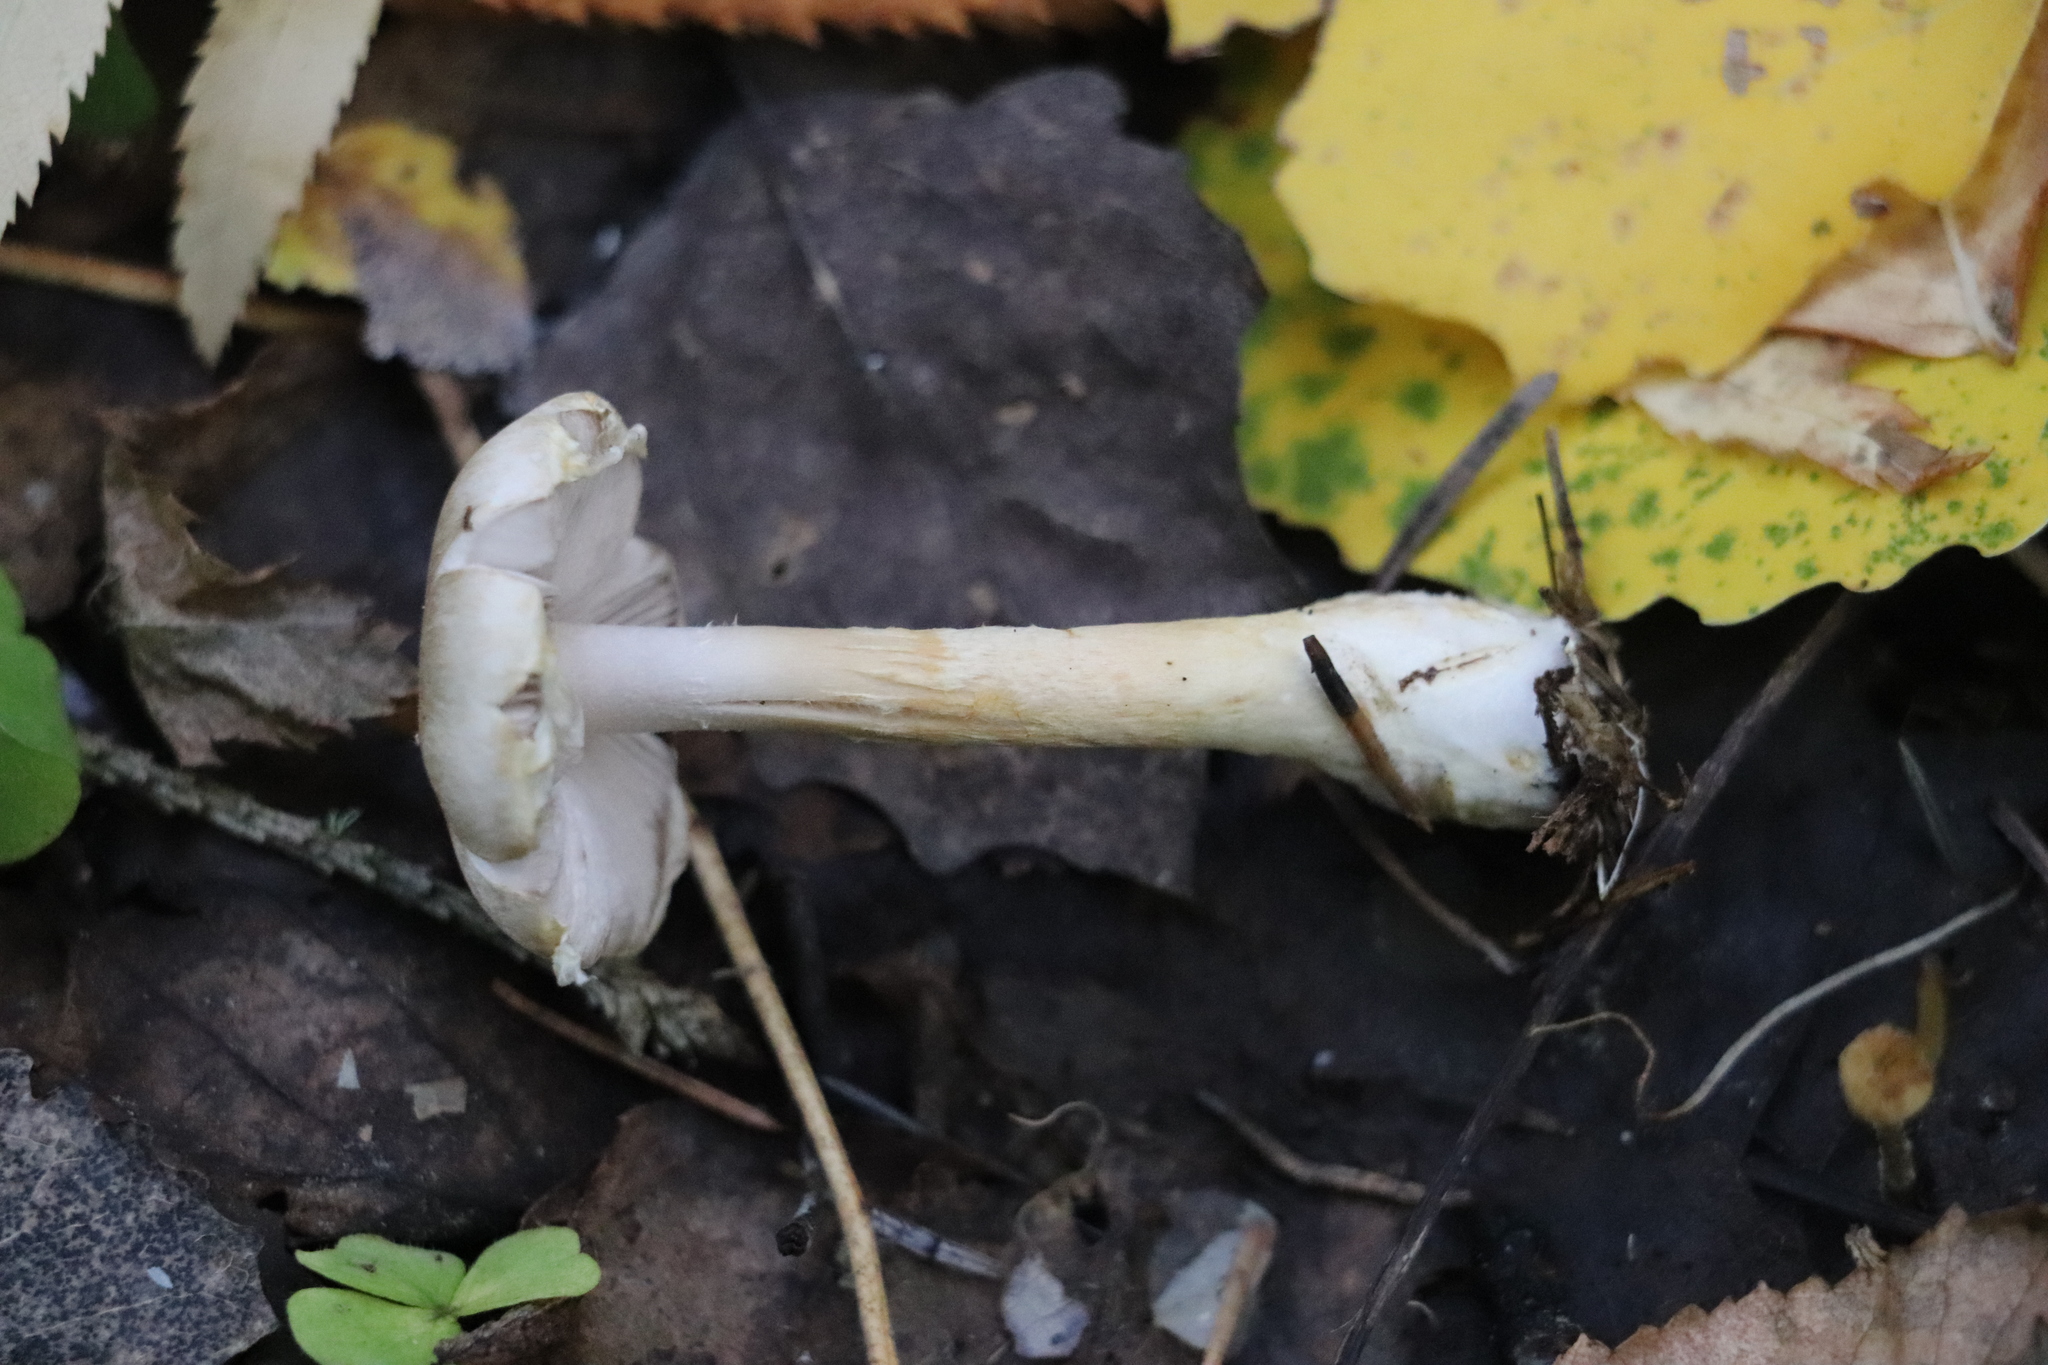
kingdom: Fungi
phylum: Basidiomycota
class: Agaricomycetes
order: Agaricales
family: Agaricaceae
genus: Agaricus
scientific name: Agaricus semotus
